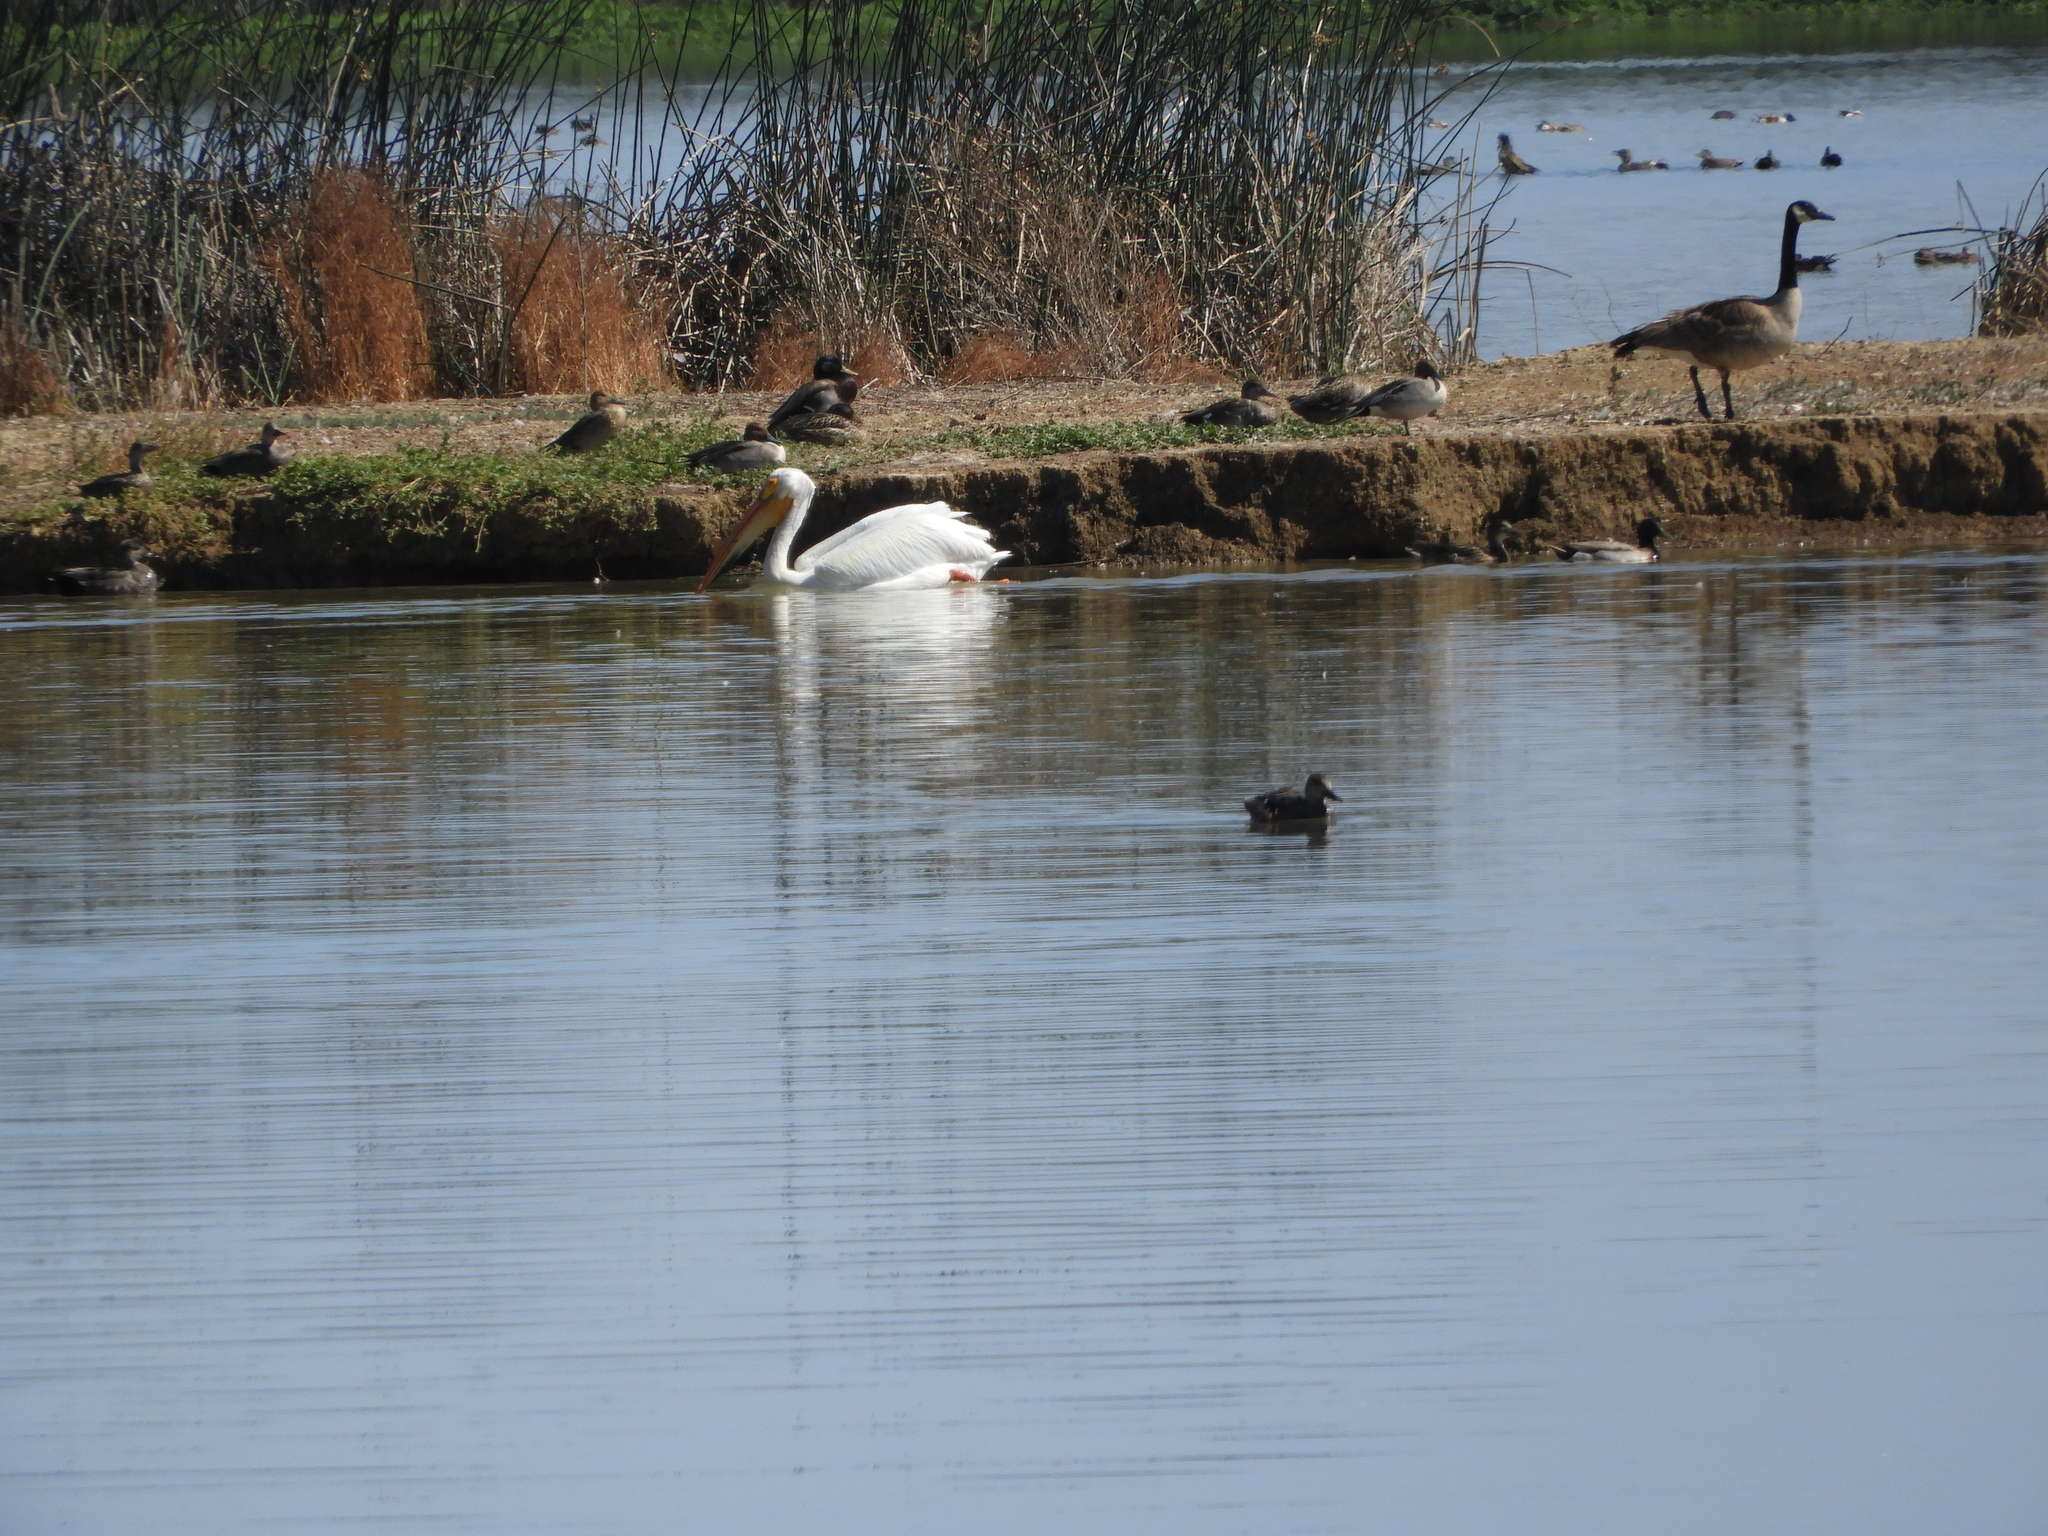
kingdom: Animalia
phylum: Chordata
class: Aves
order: Pelecaniformes
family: Pelecanidae
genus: Pelecanus
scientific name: Pelecanus erythrorhynchos
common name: American white pelican
